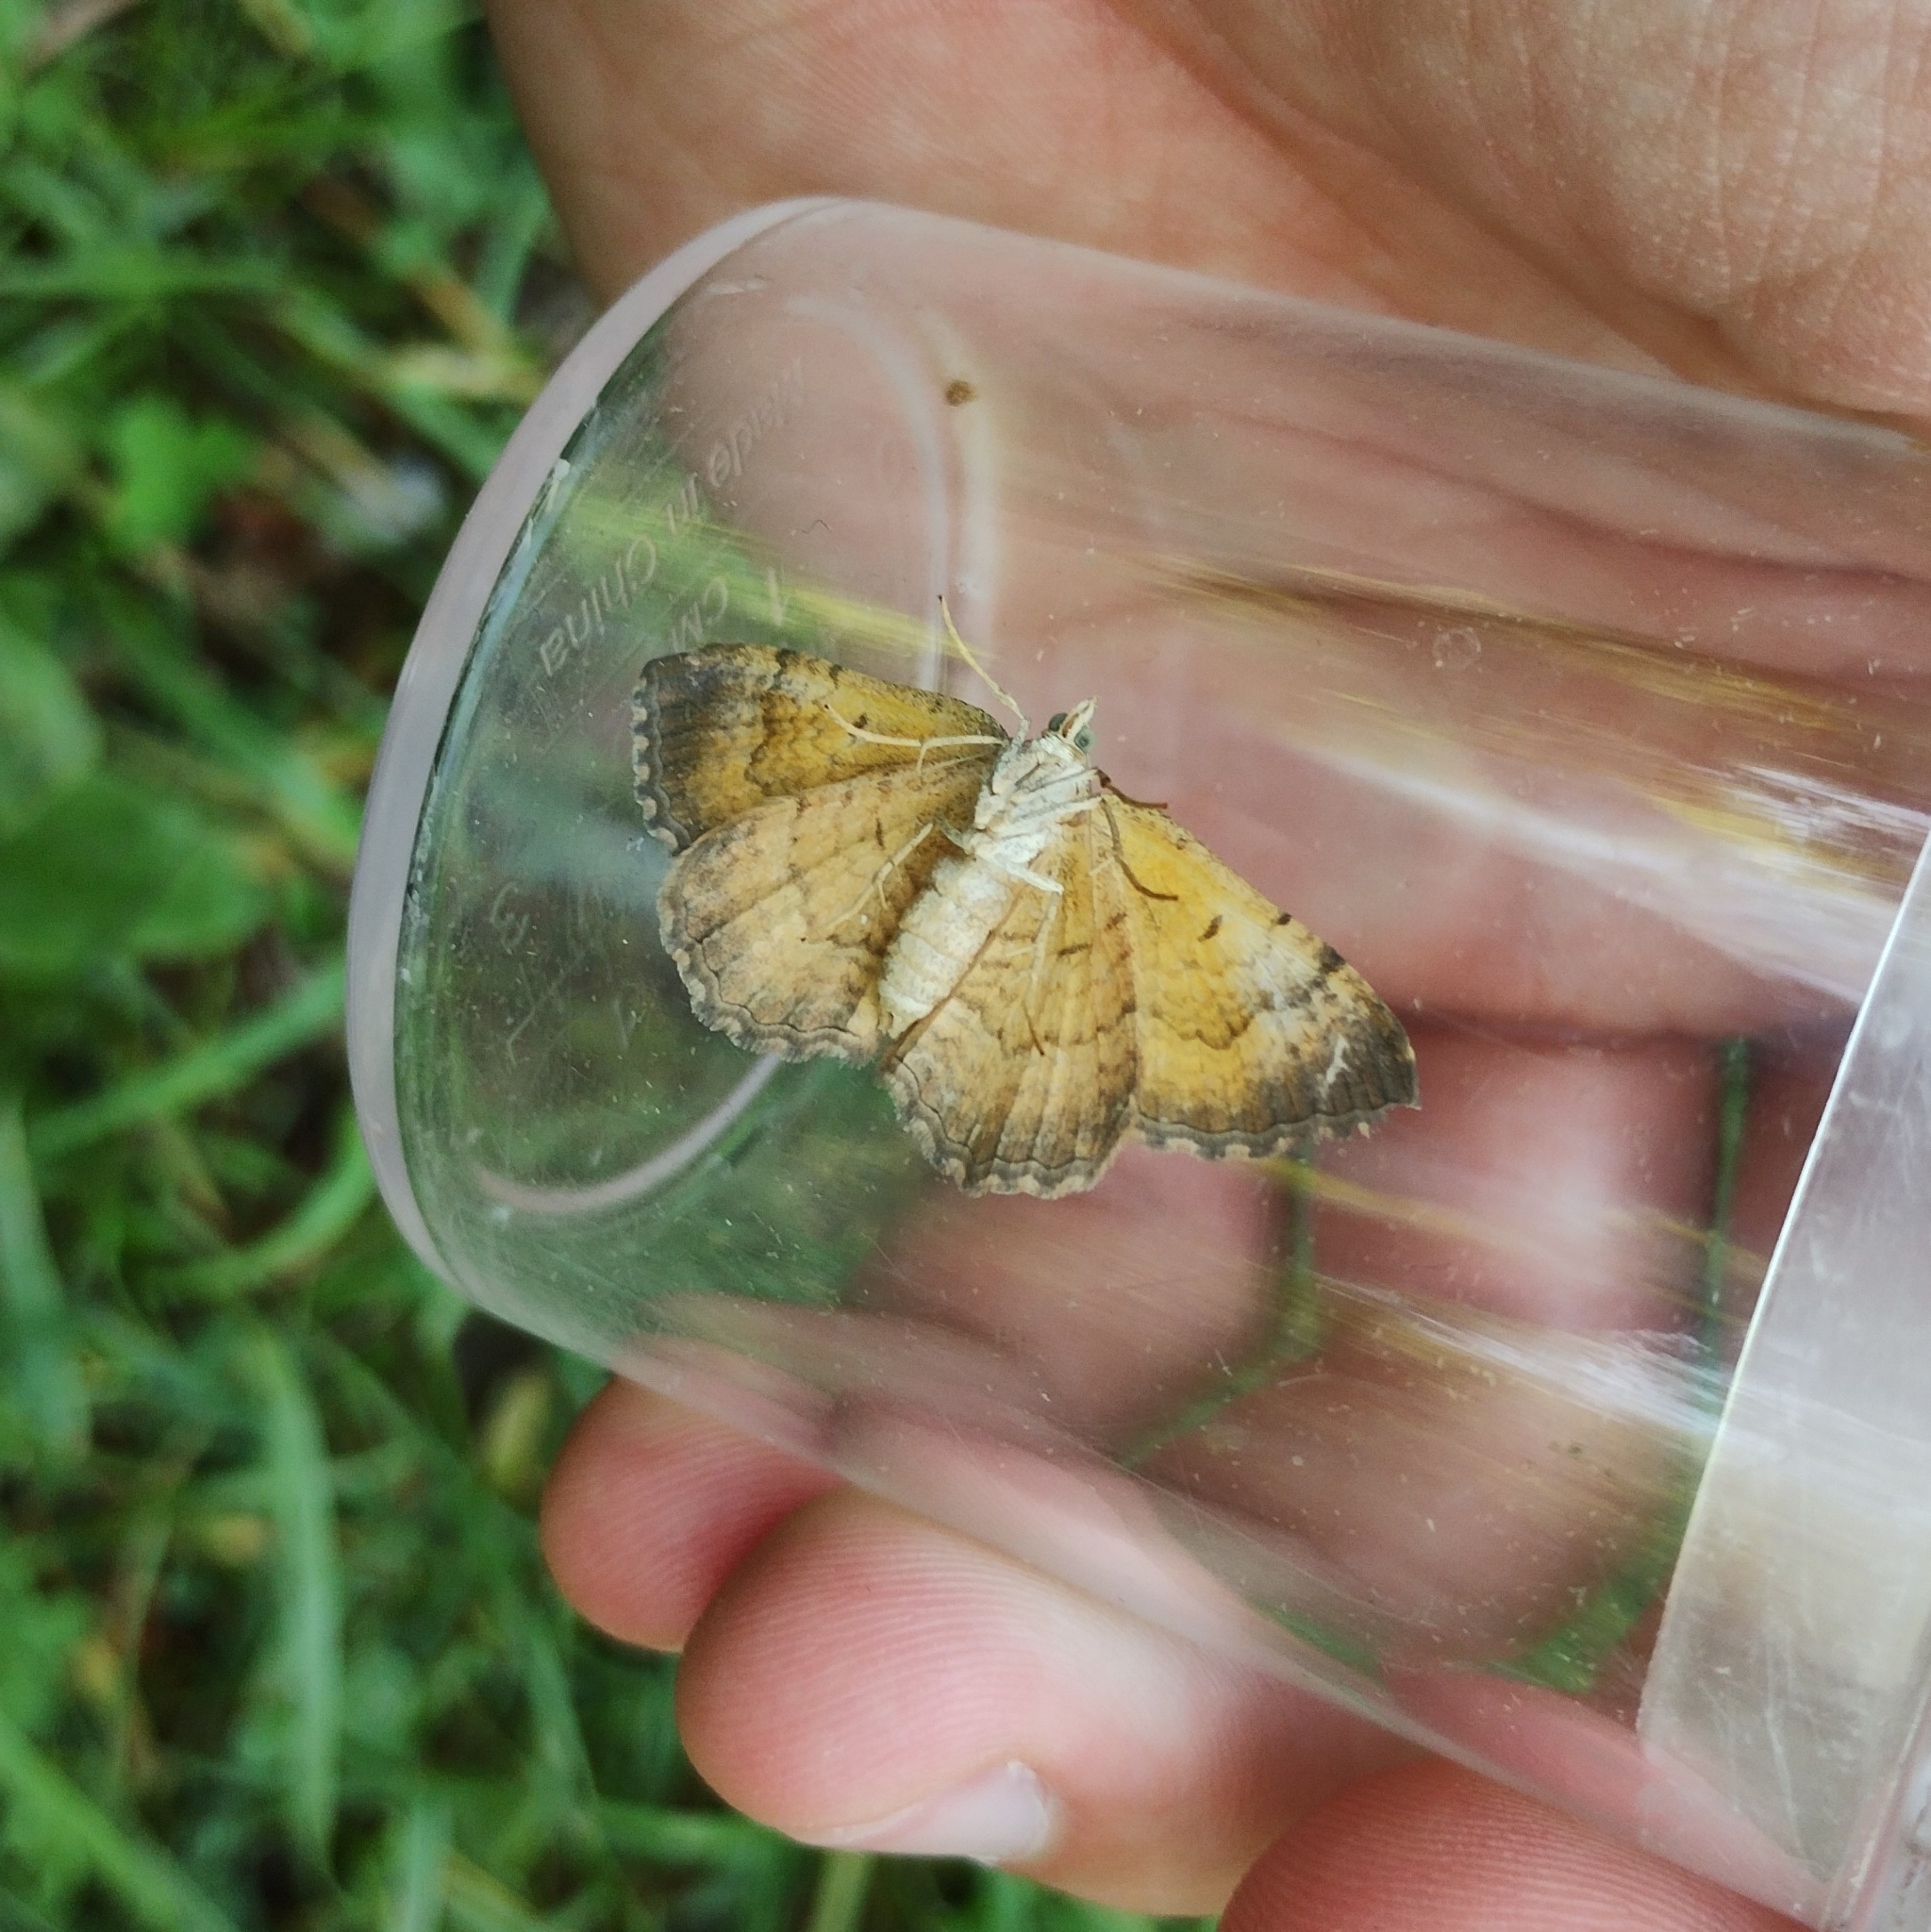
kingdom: Animalia
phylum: Arthropoda
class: Insecta
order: Lepidoptera
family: Geometridae
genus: Camptogramma
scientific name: Camptogramma bilineata
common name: Yellow shell
